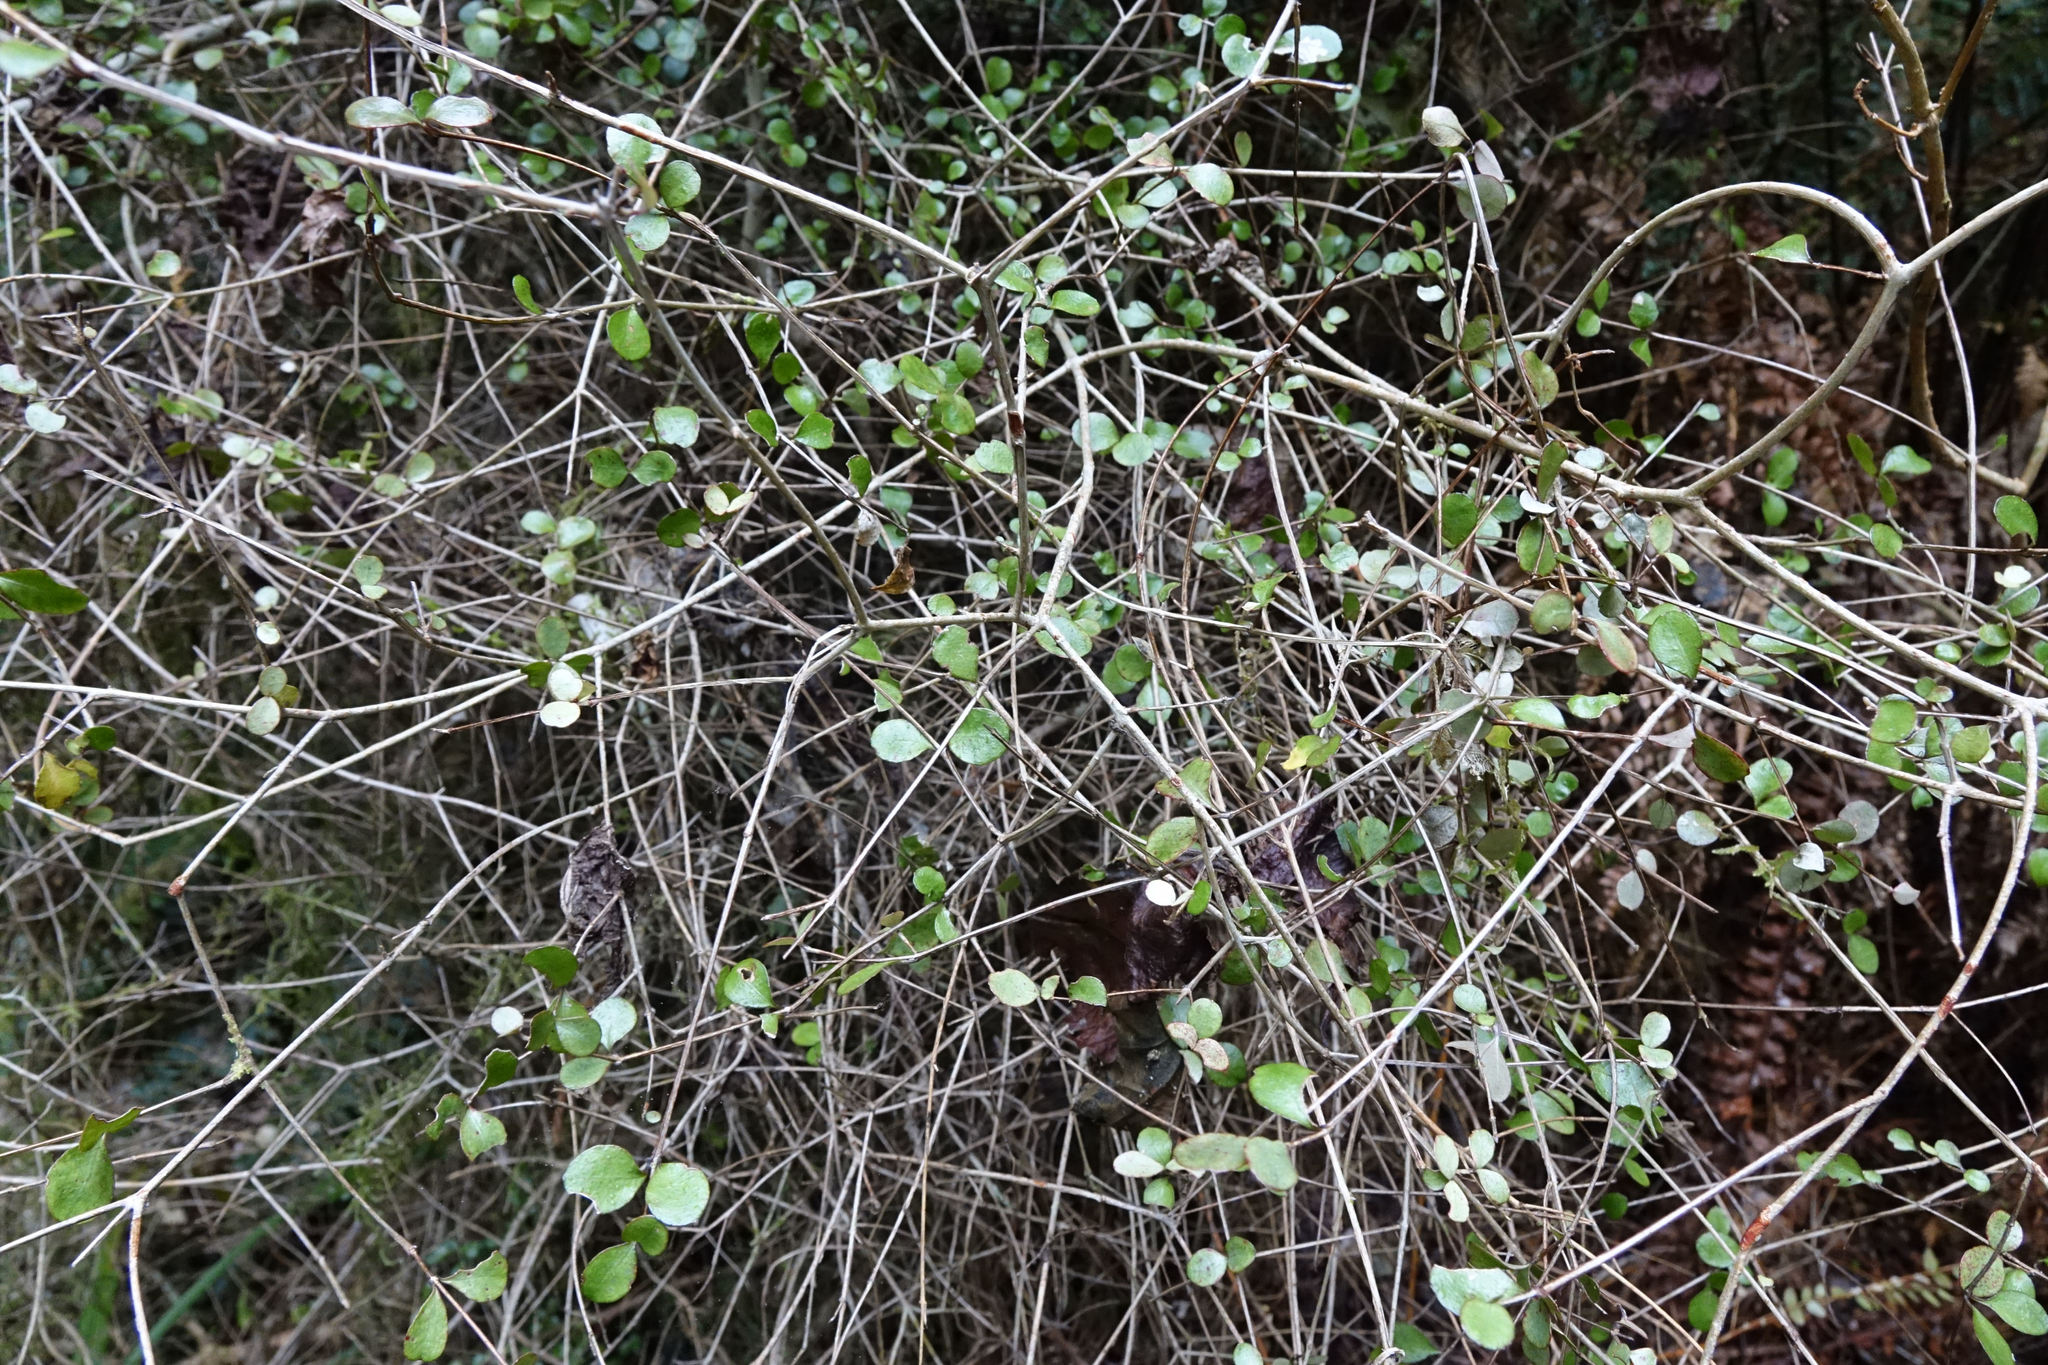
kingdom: Plantae
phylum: Tracheophyta
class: Magnoliopsida
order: Myrtales
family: Myrtaceae
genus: Neomyrtus
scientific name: Neomyrtus pedunculata
